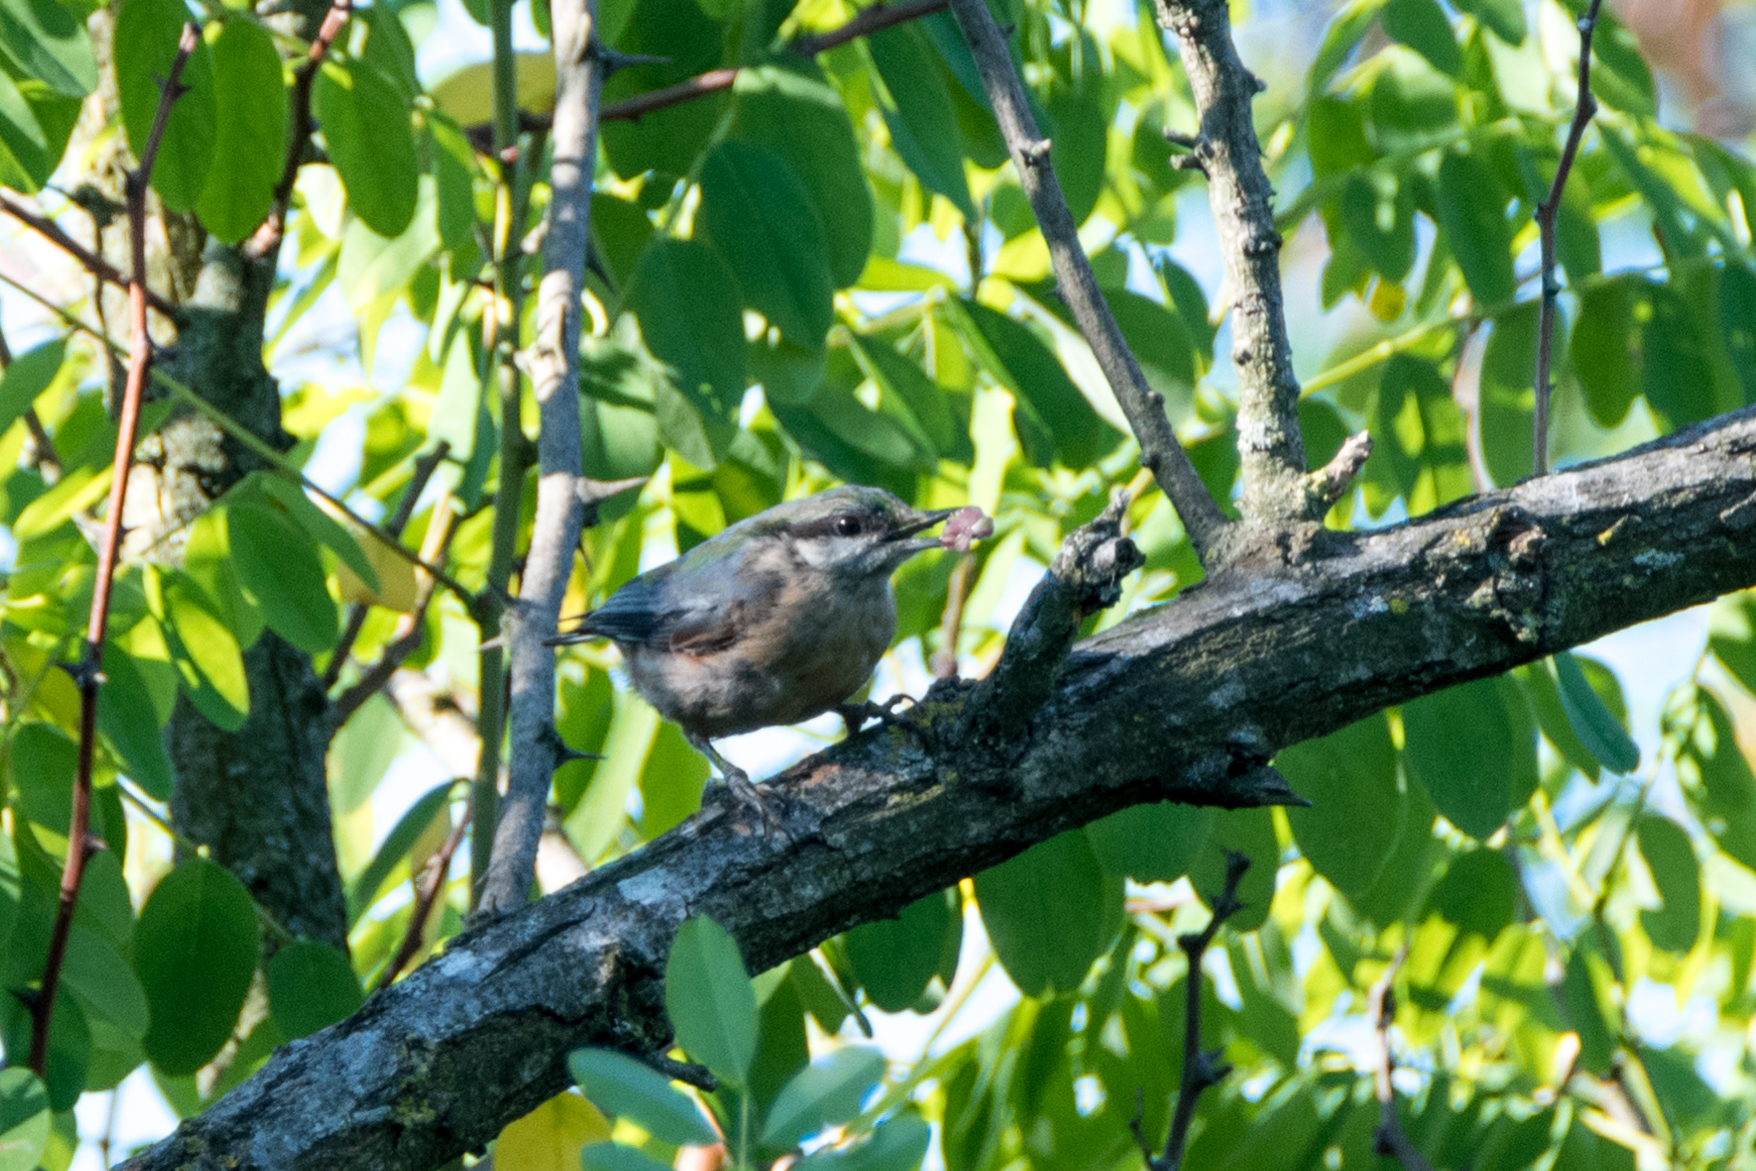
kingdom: Animalia
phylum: Chordata
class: Aves
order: Passeriformes
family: Sittidae
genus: Sitta
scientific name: Sitta europaea
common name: Eurasian nuthatch
